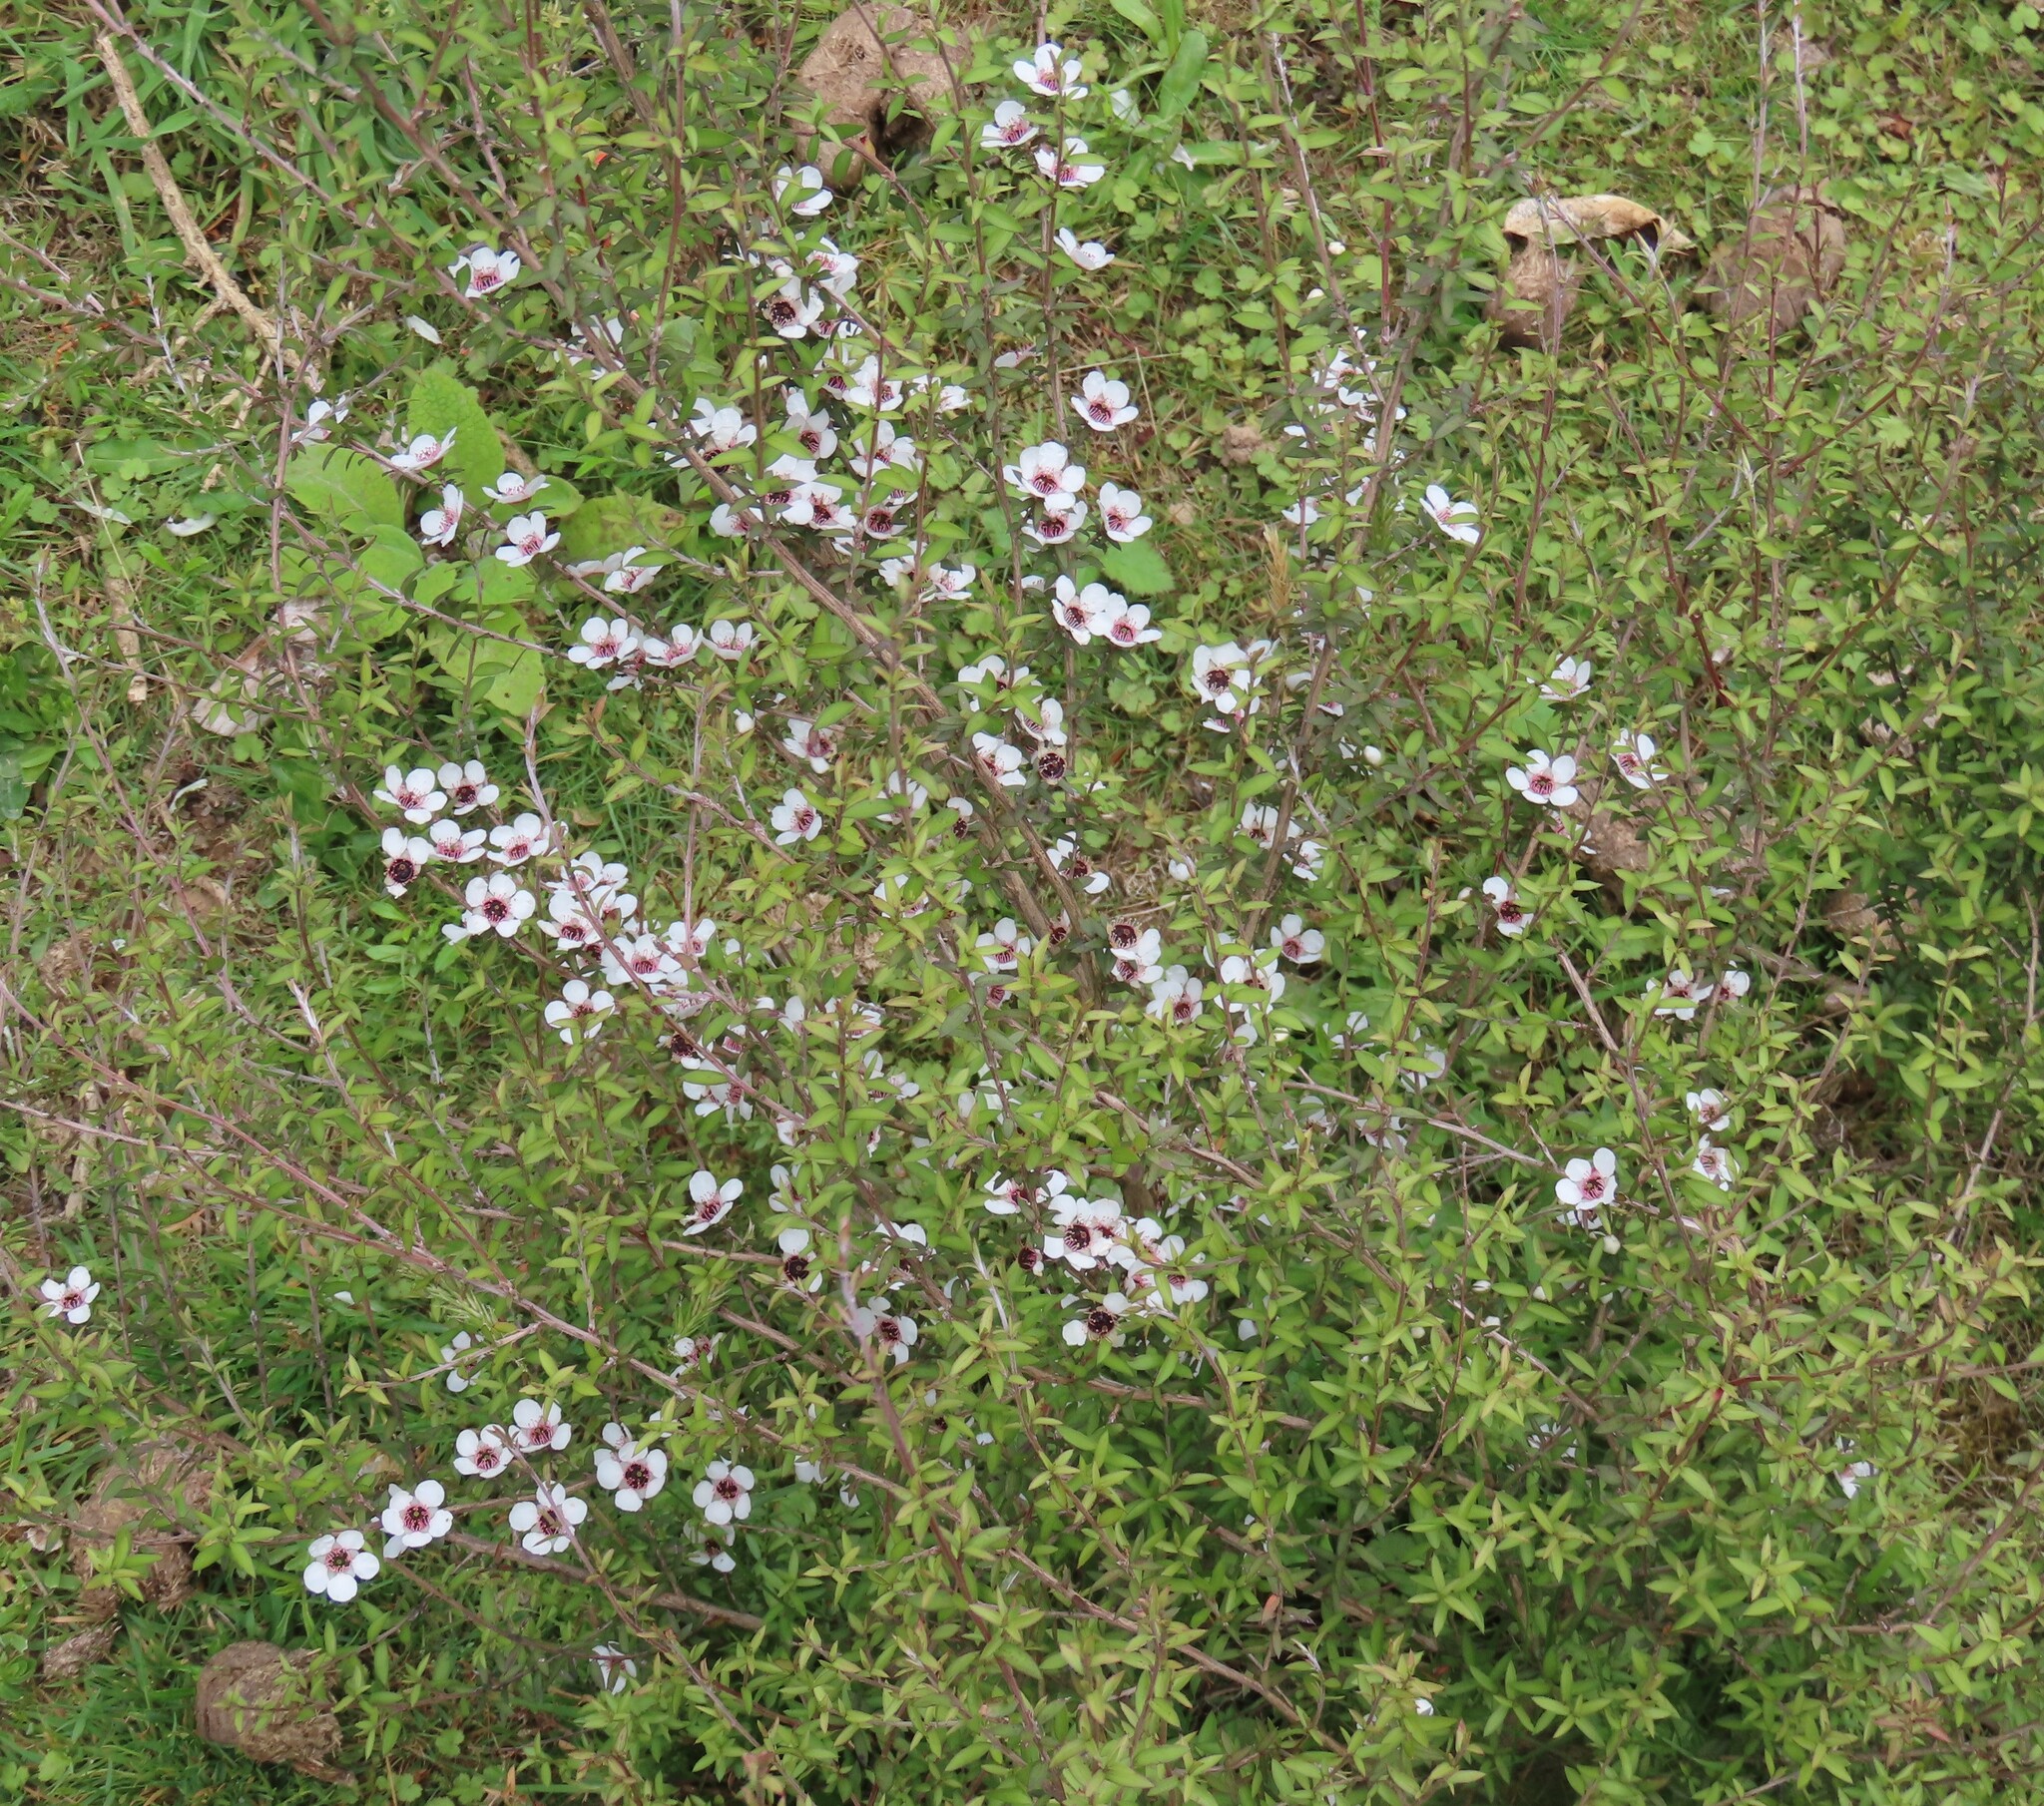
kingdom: Plantae
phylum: Tracheophyta
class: Magnoliopsida
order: Myrtales
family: Myrtaceae
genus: Leptospermum
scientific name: Leptospermum scoparium
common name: Broom tea-tree
